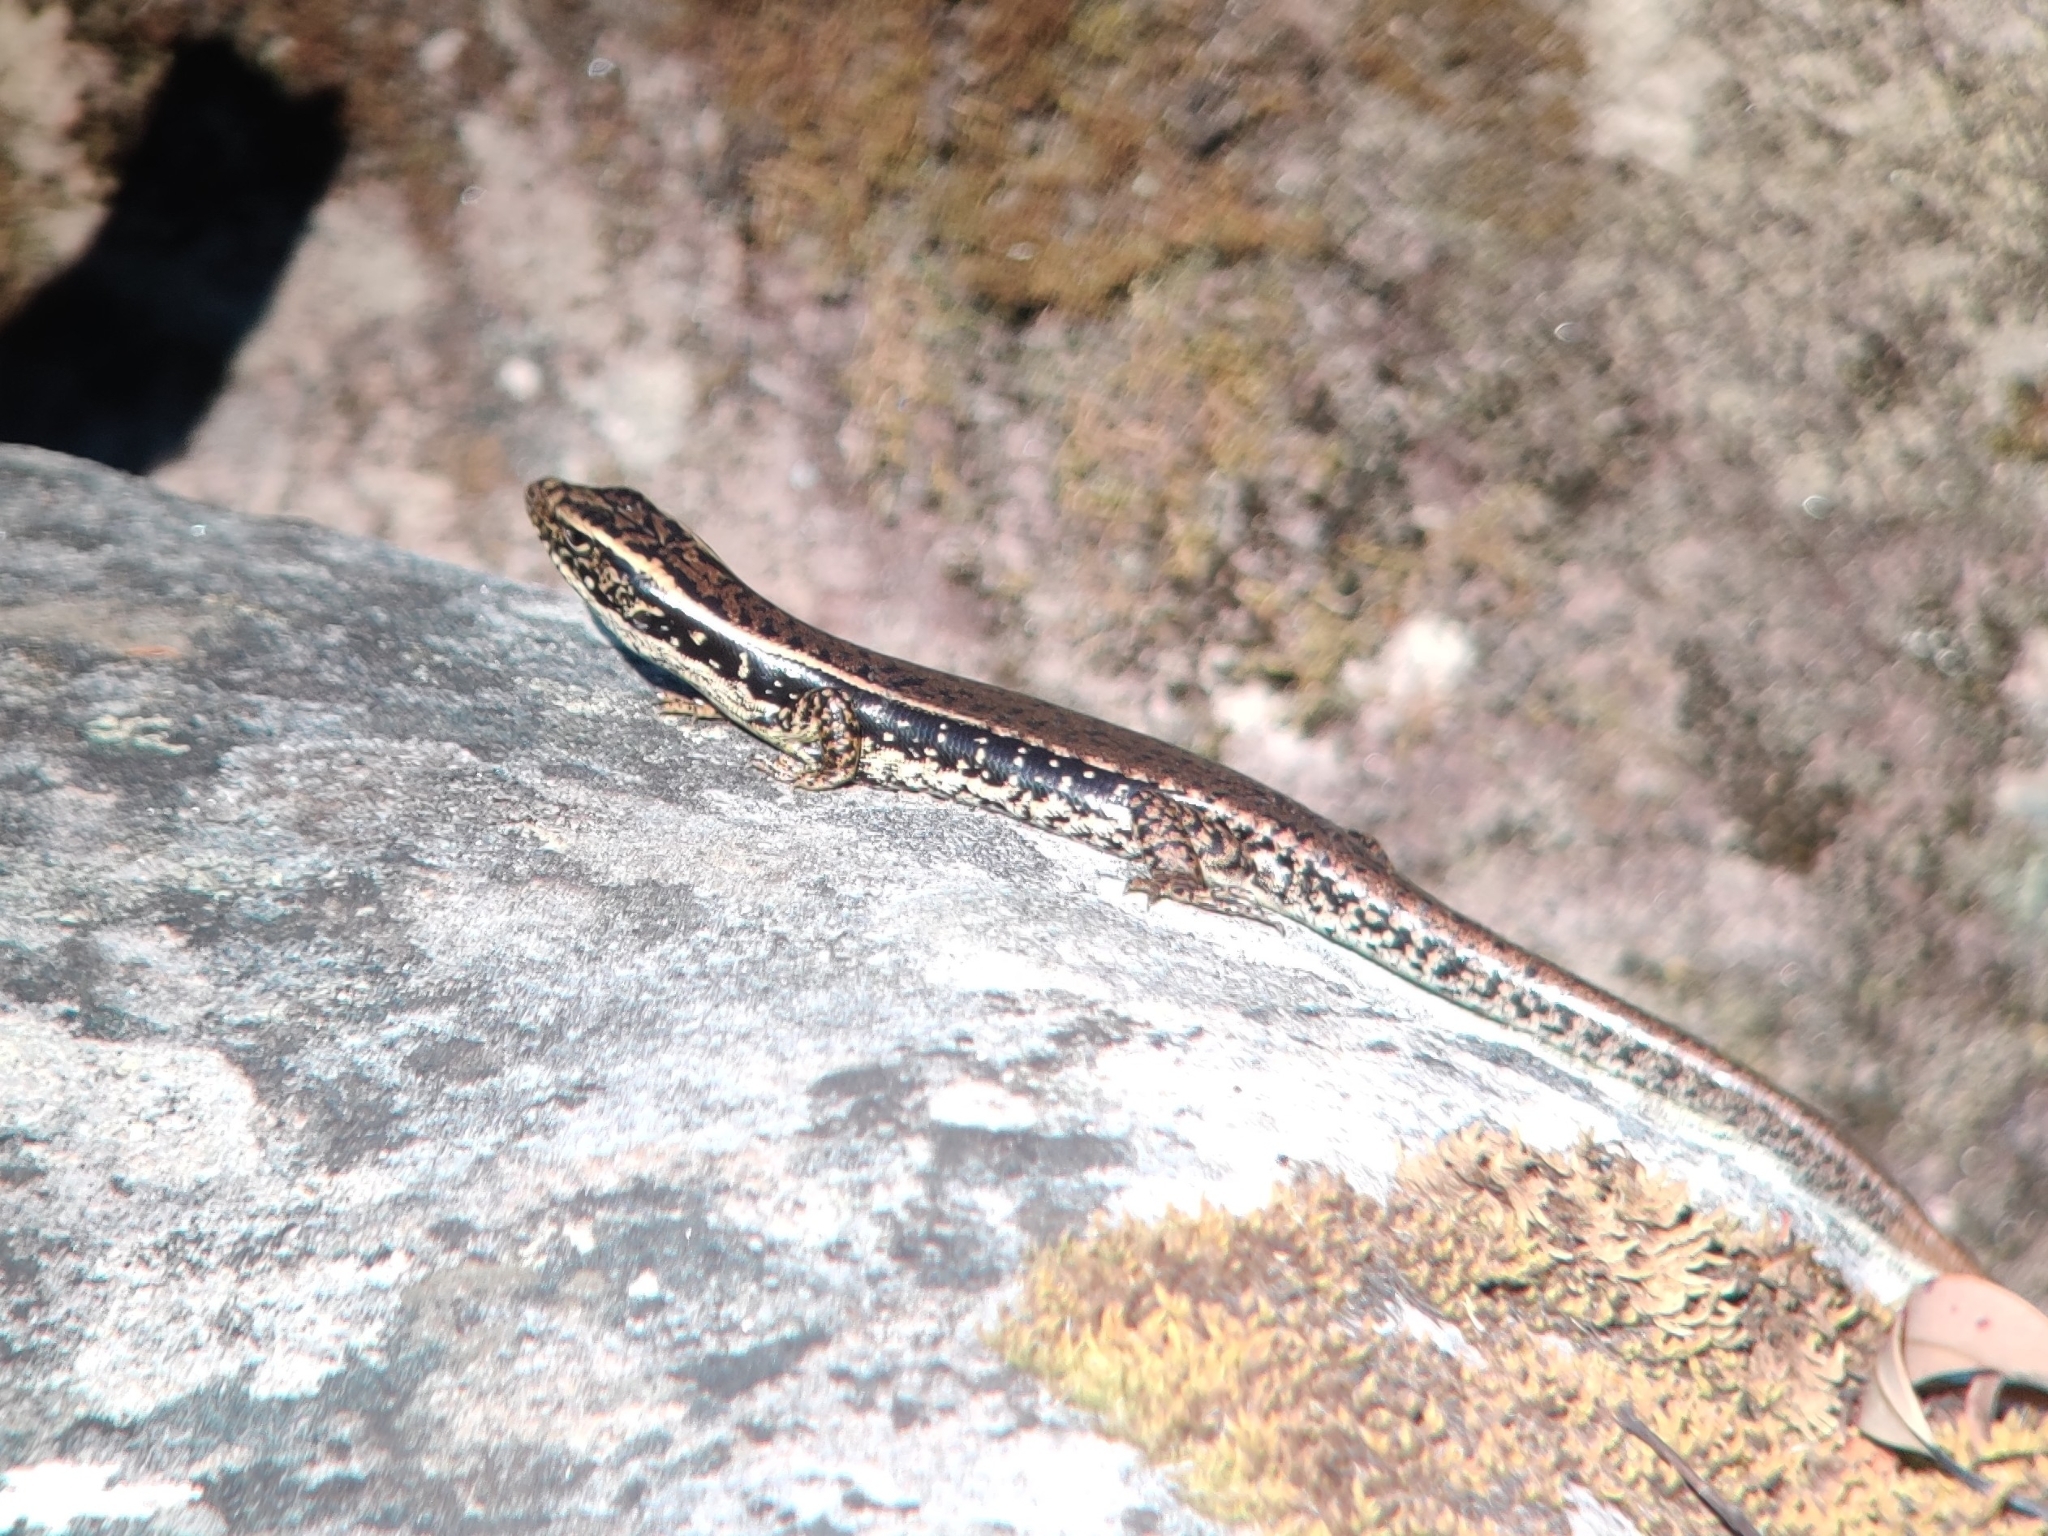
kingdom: Animalia
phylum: Chordata
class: Squamata
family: Scincidae
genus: Eulamprus
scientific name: Eulamprus quoyii
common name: Eastern water skink
